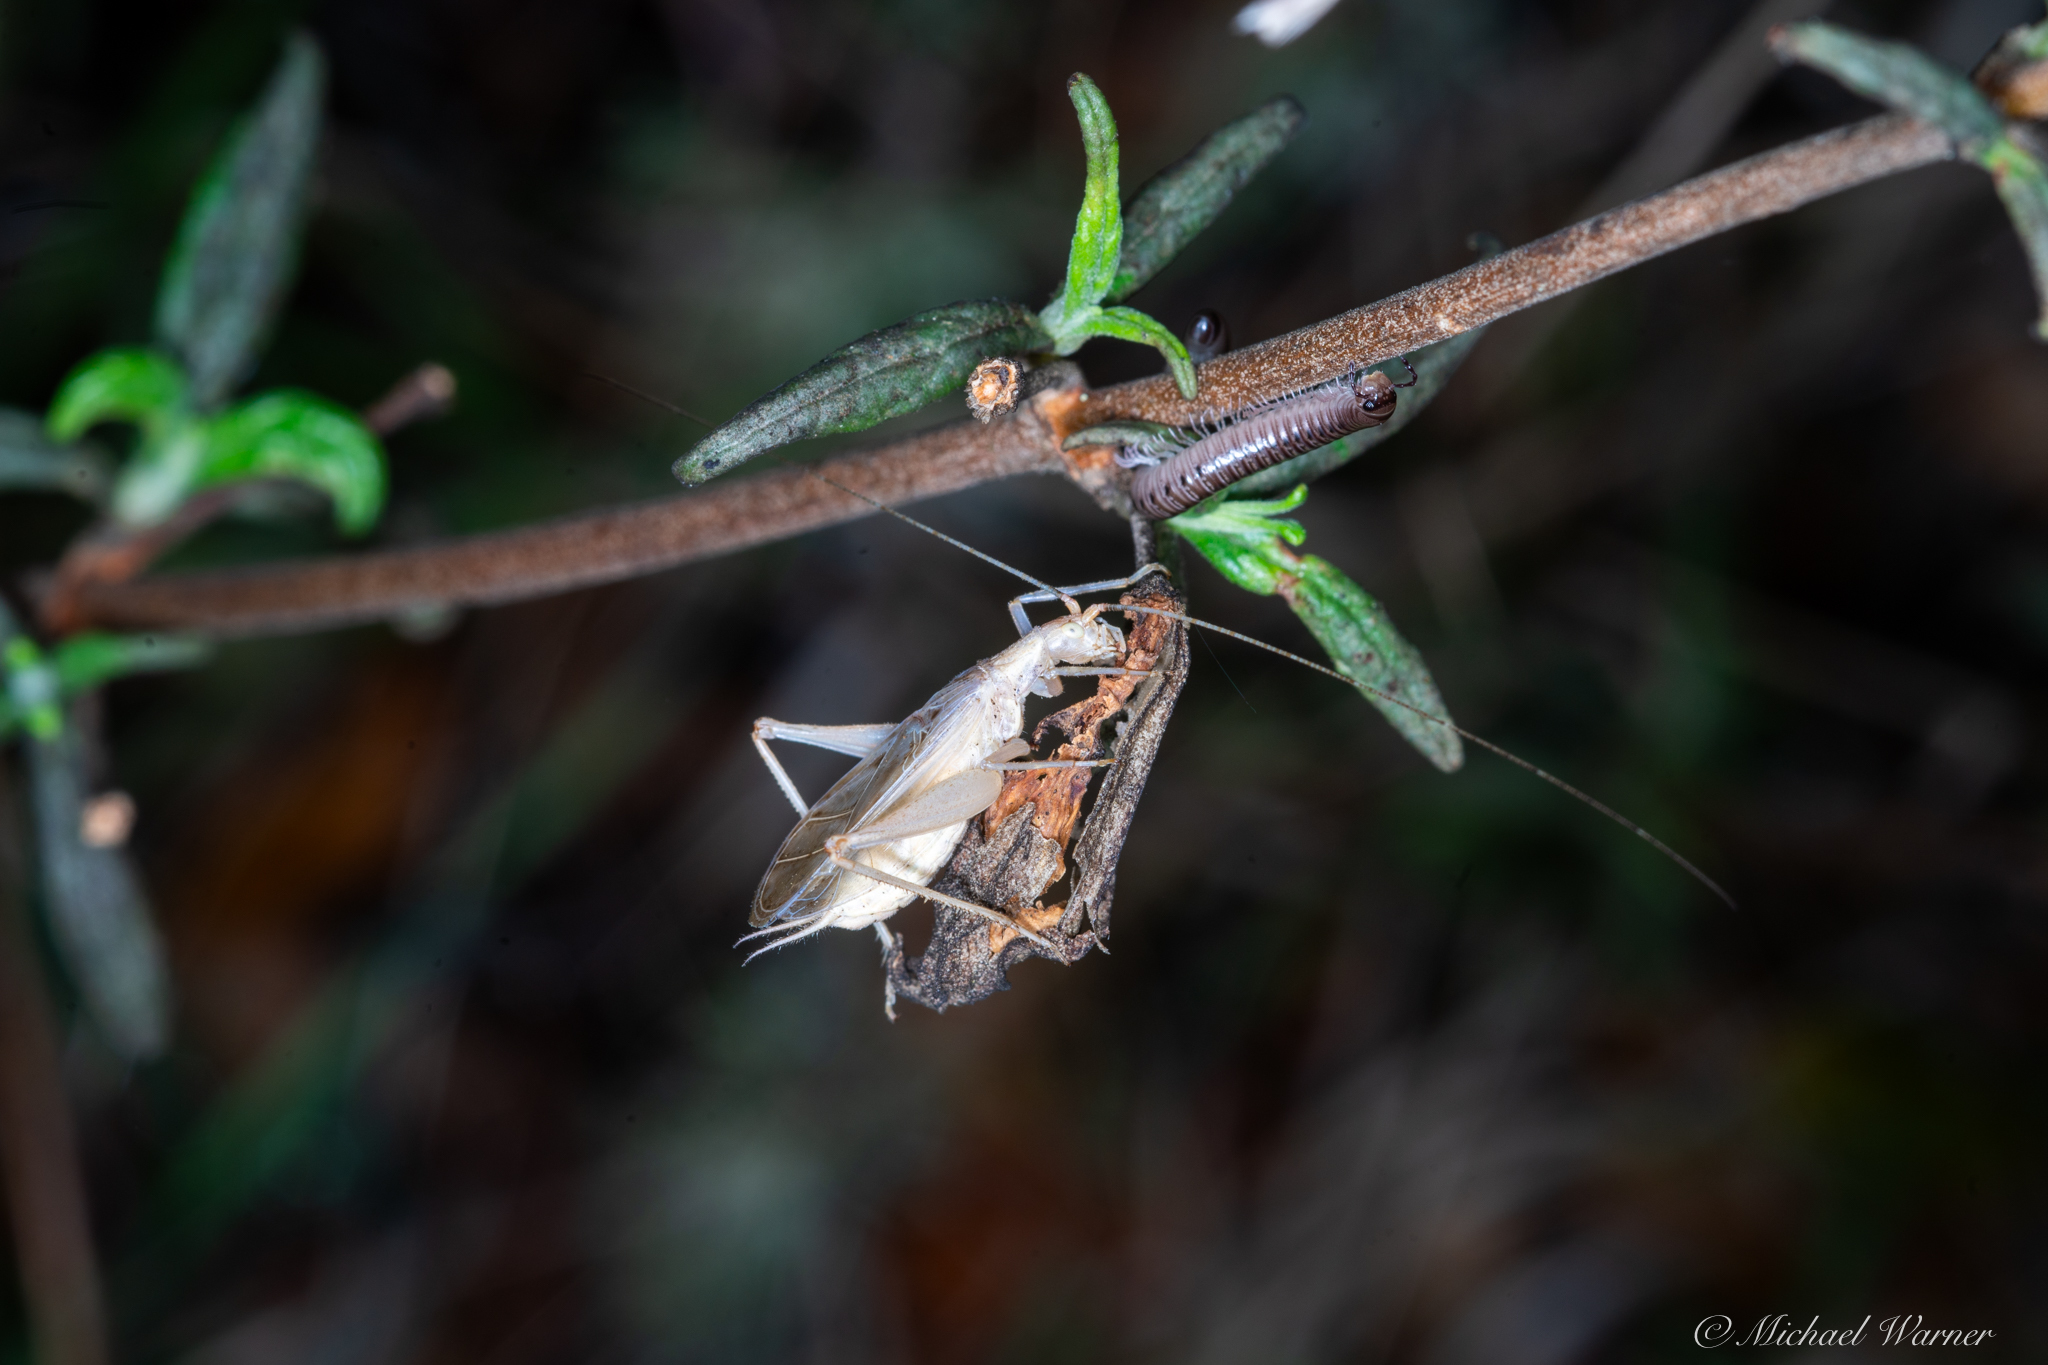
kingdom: Animalia
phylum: Arthropoda
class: Insecta
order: Orthoptera
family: Gryllidae
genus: Oecanthus
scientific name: Oecanthus californicus
